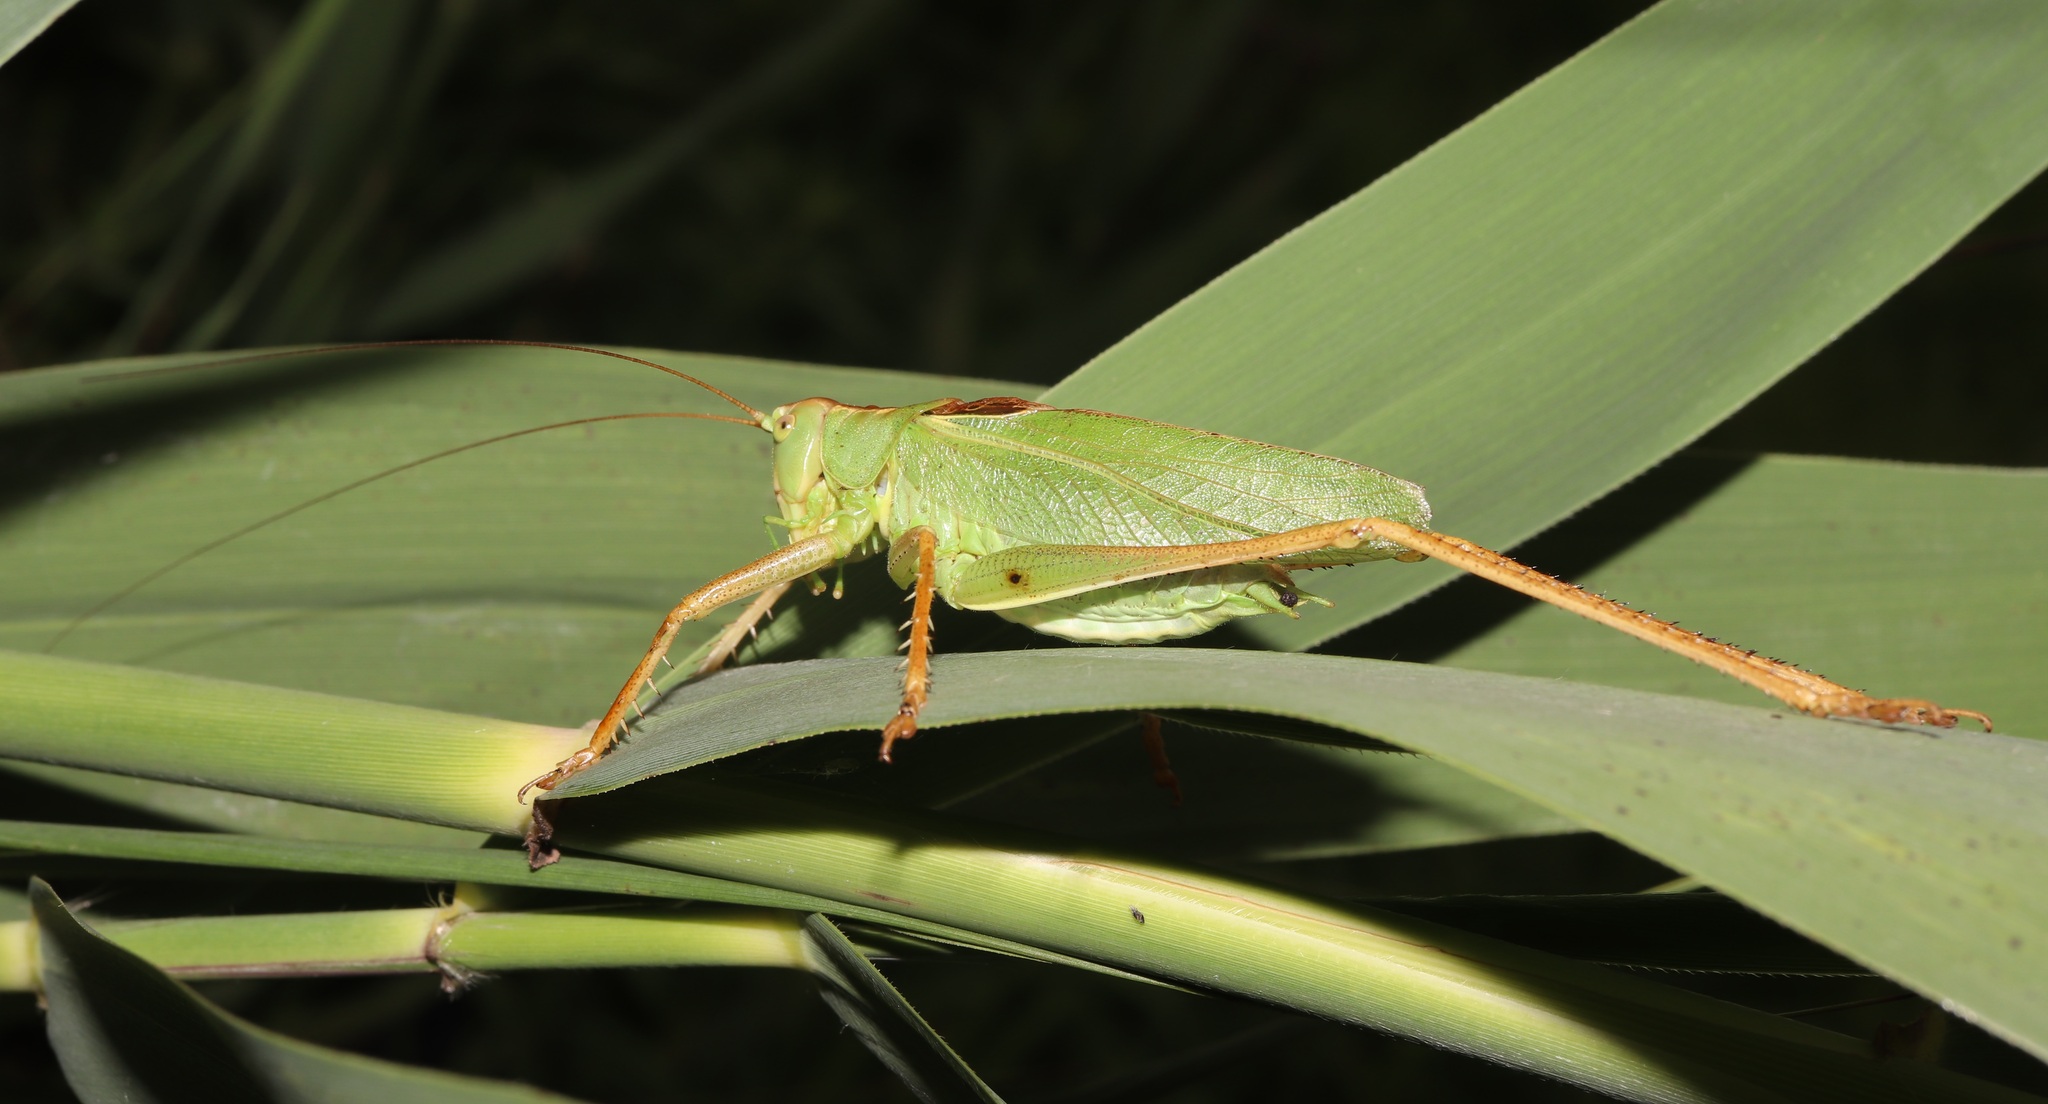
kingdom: Animalia
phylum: Arthropoda
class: Insecta
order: Orthoptera
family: Tettigoniidae
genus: Tettigonia
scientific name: Tettigonia orientalis
